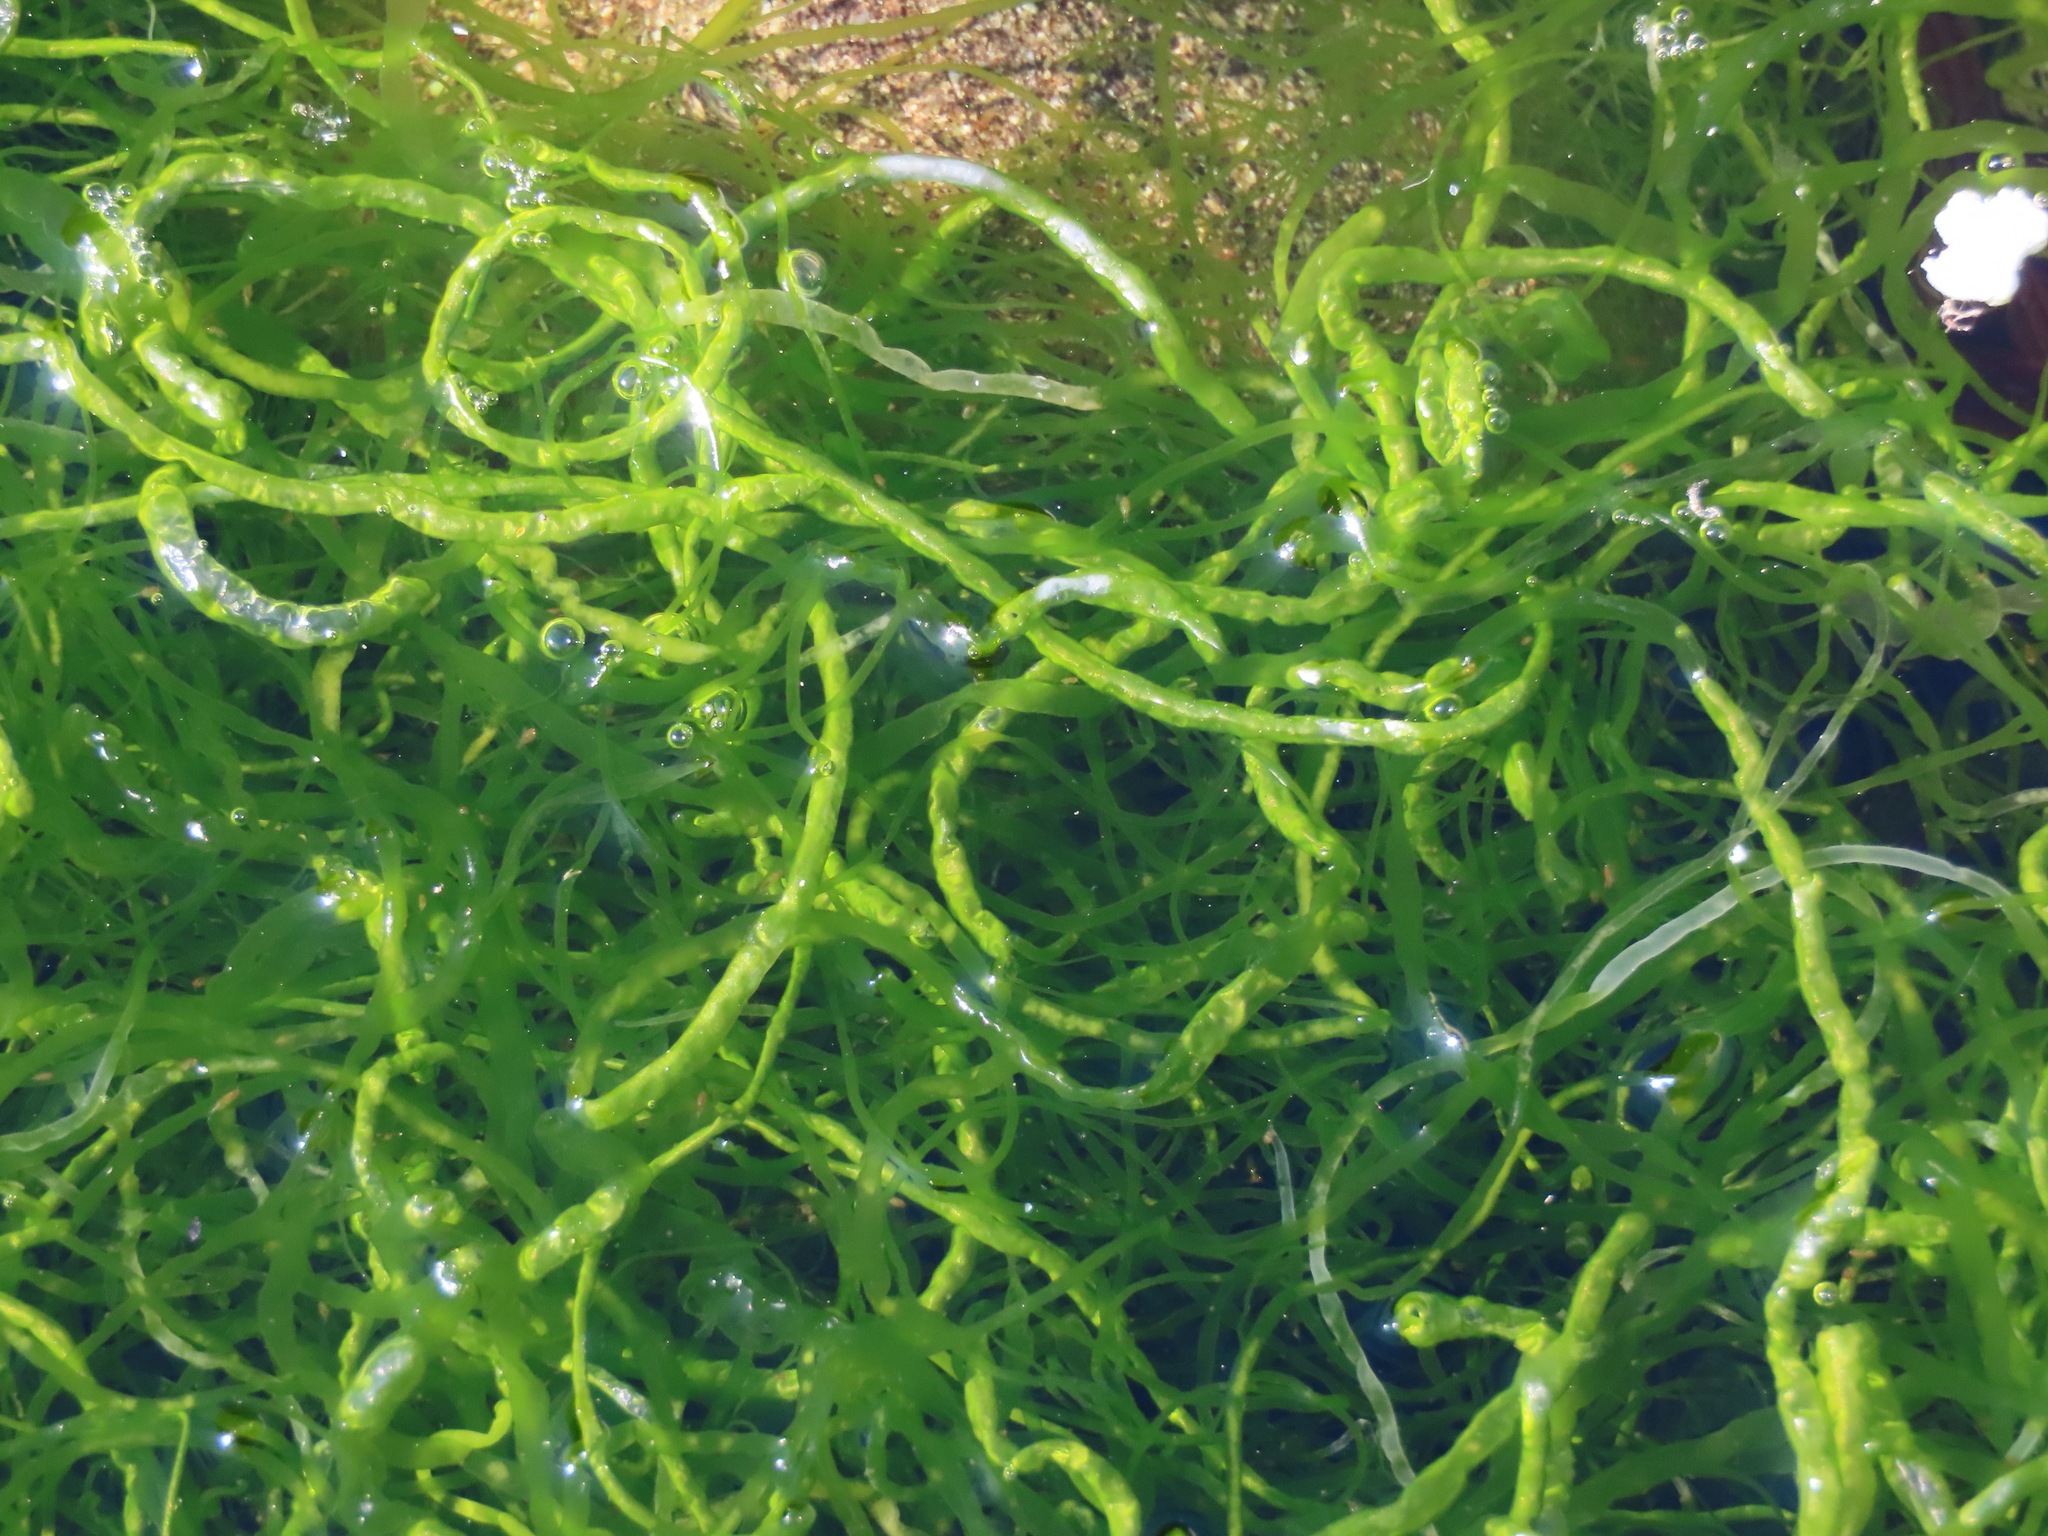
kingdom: Plantae
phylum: Chlorophyta
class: Ulvophyceae
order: Ulvales
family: Ulvaceae
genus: Ulva
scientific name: Ulva intestinalis
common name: Gut weed
